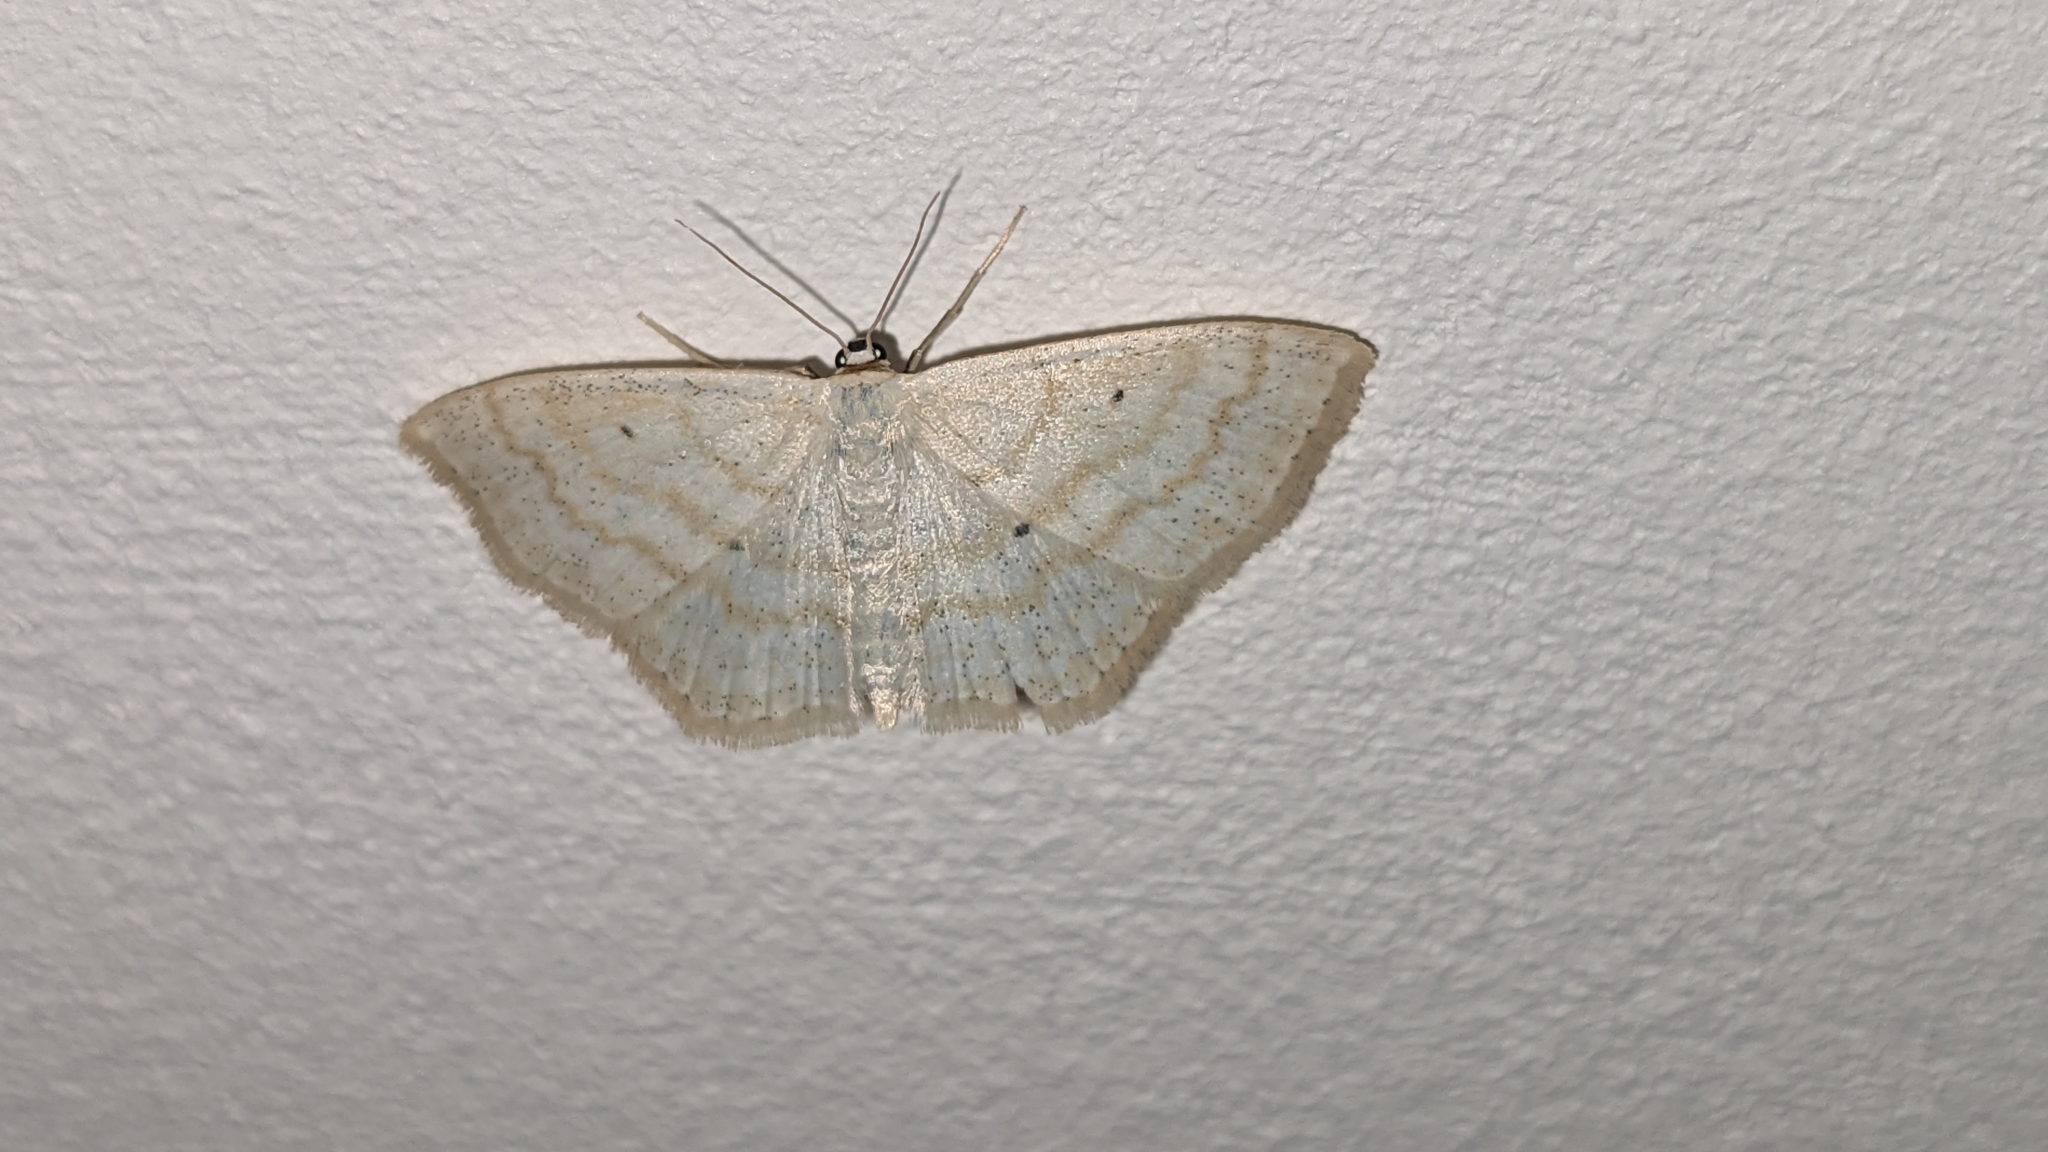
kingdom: Animalia
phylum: Arthropoda
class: Insecta
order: Lepidoptera
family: Geometridae
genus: Scopula
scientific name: Scopula immutata
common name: Lesser cream wave
